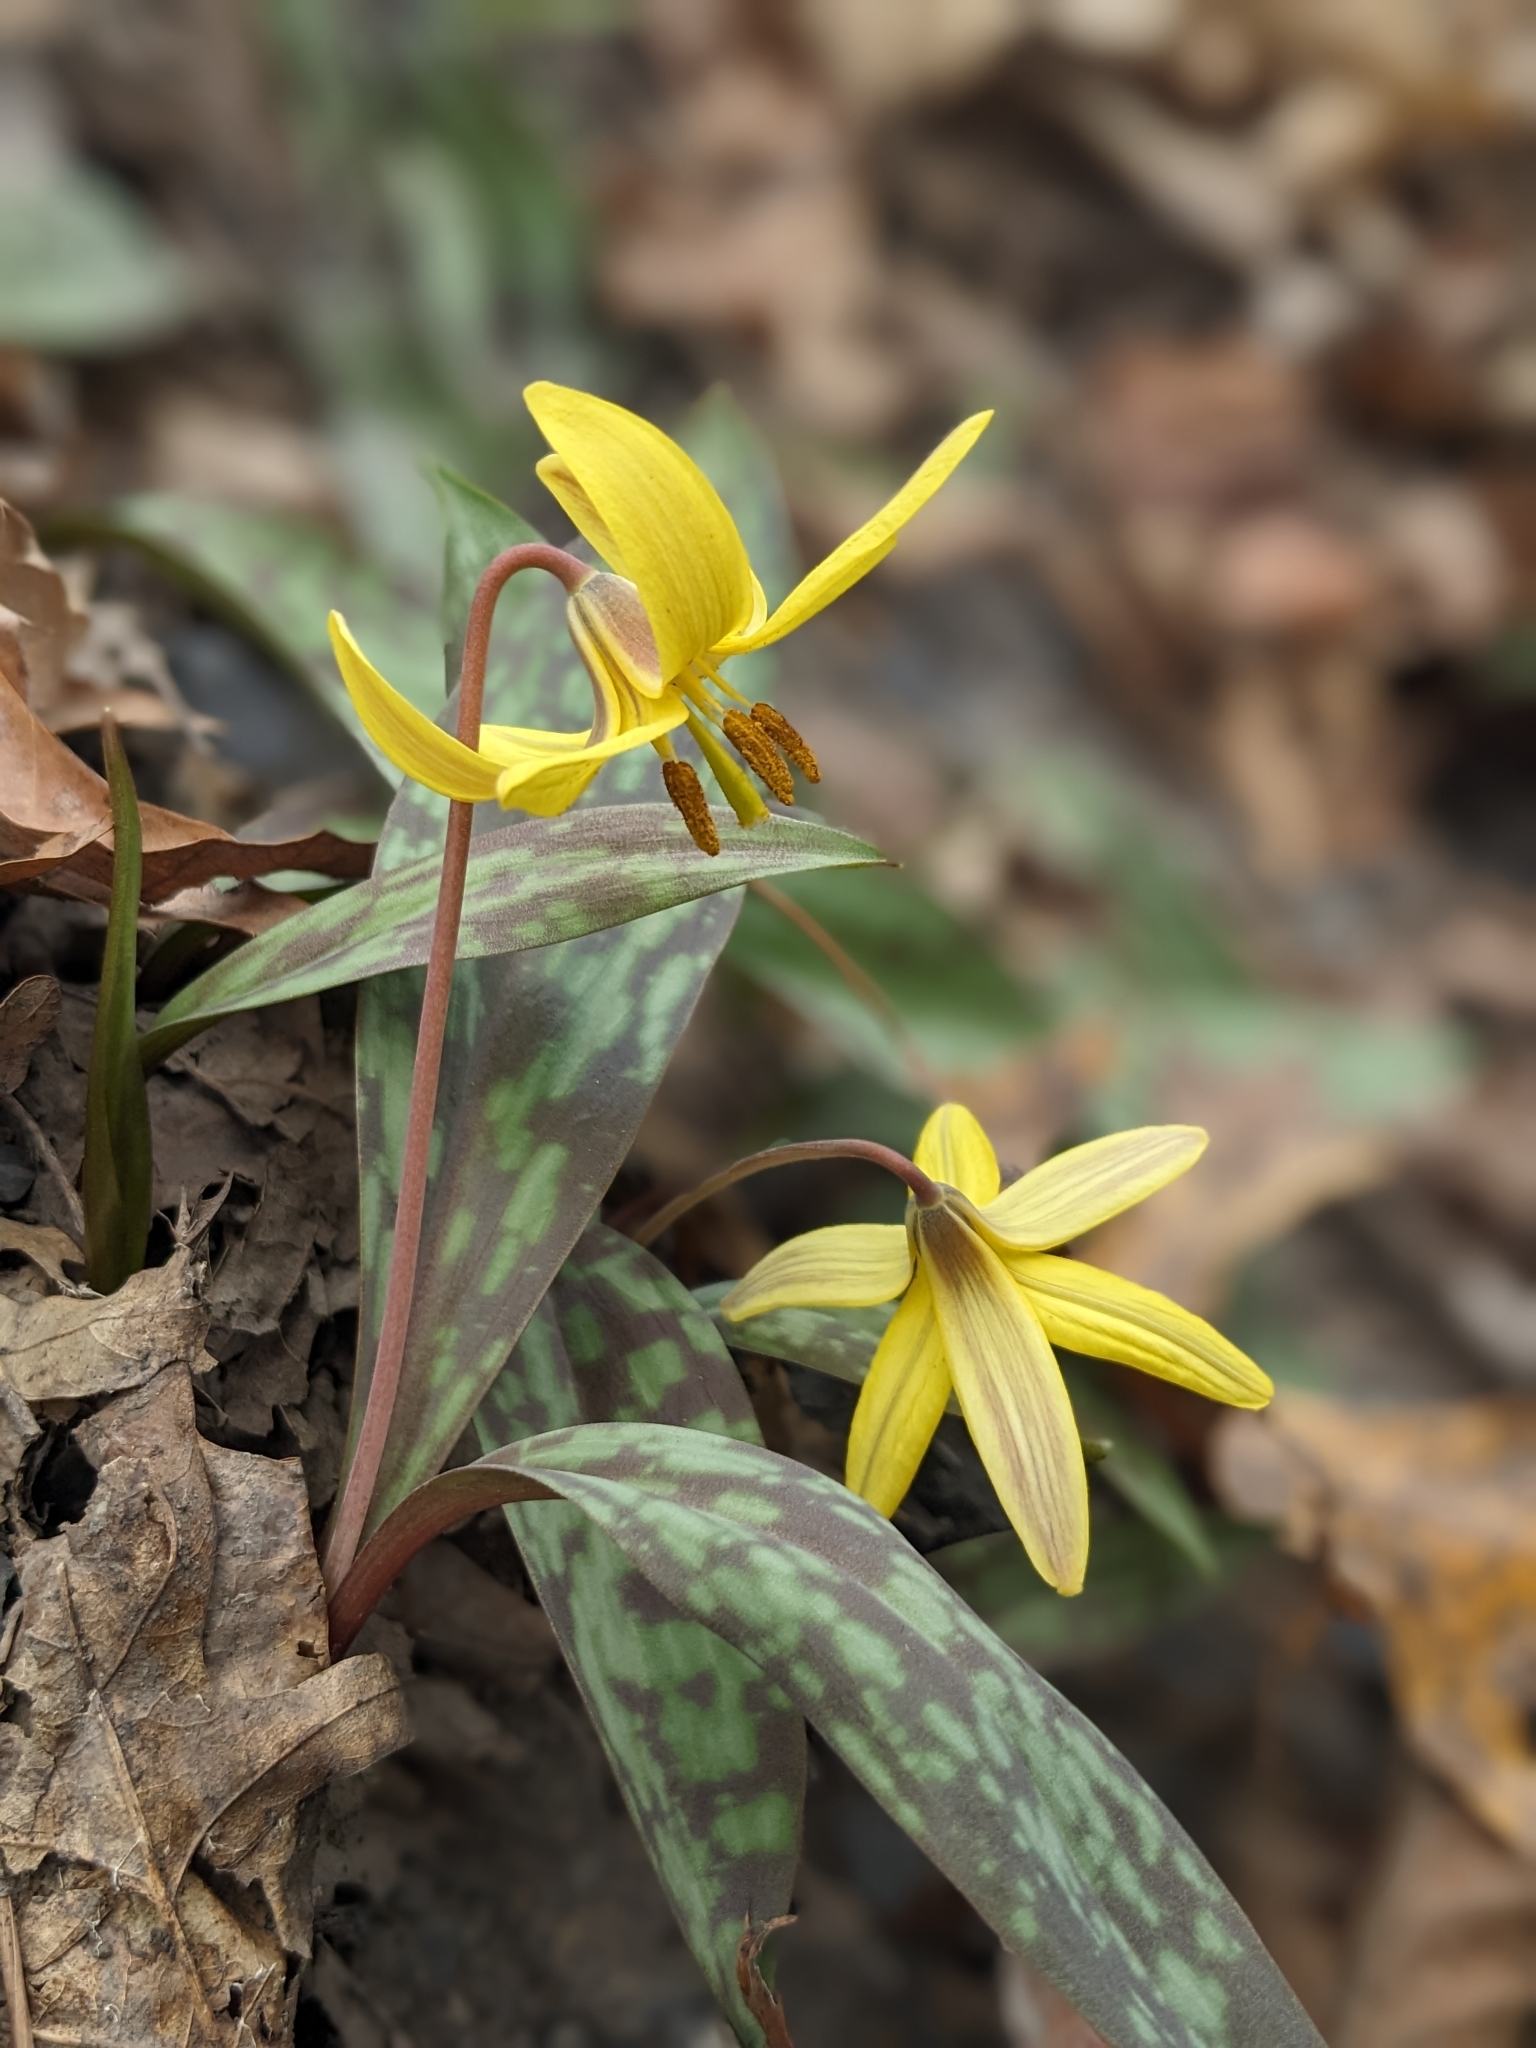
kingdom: Plantae
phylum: Tracheophyta
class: Liliopsida
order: Liliales
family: Liliaceae
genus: Erythronium
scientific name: Erythronium americanum
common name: Yellow adder's-tongue
